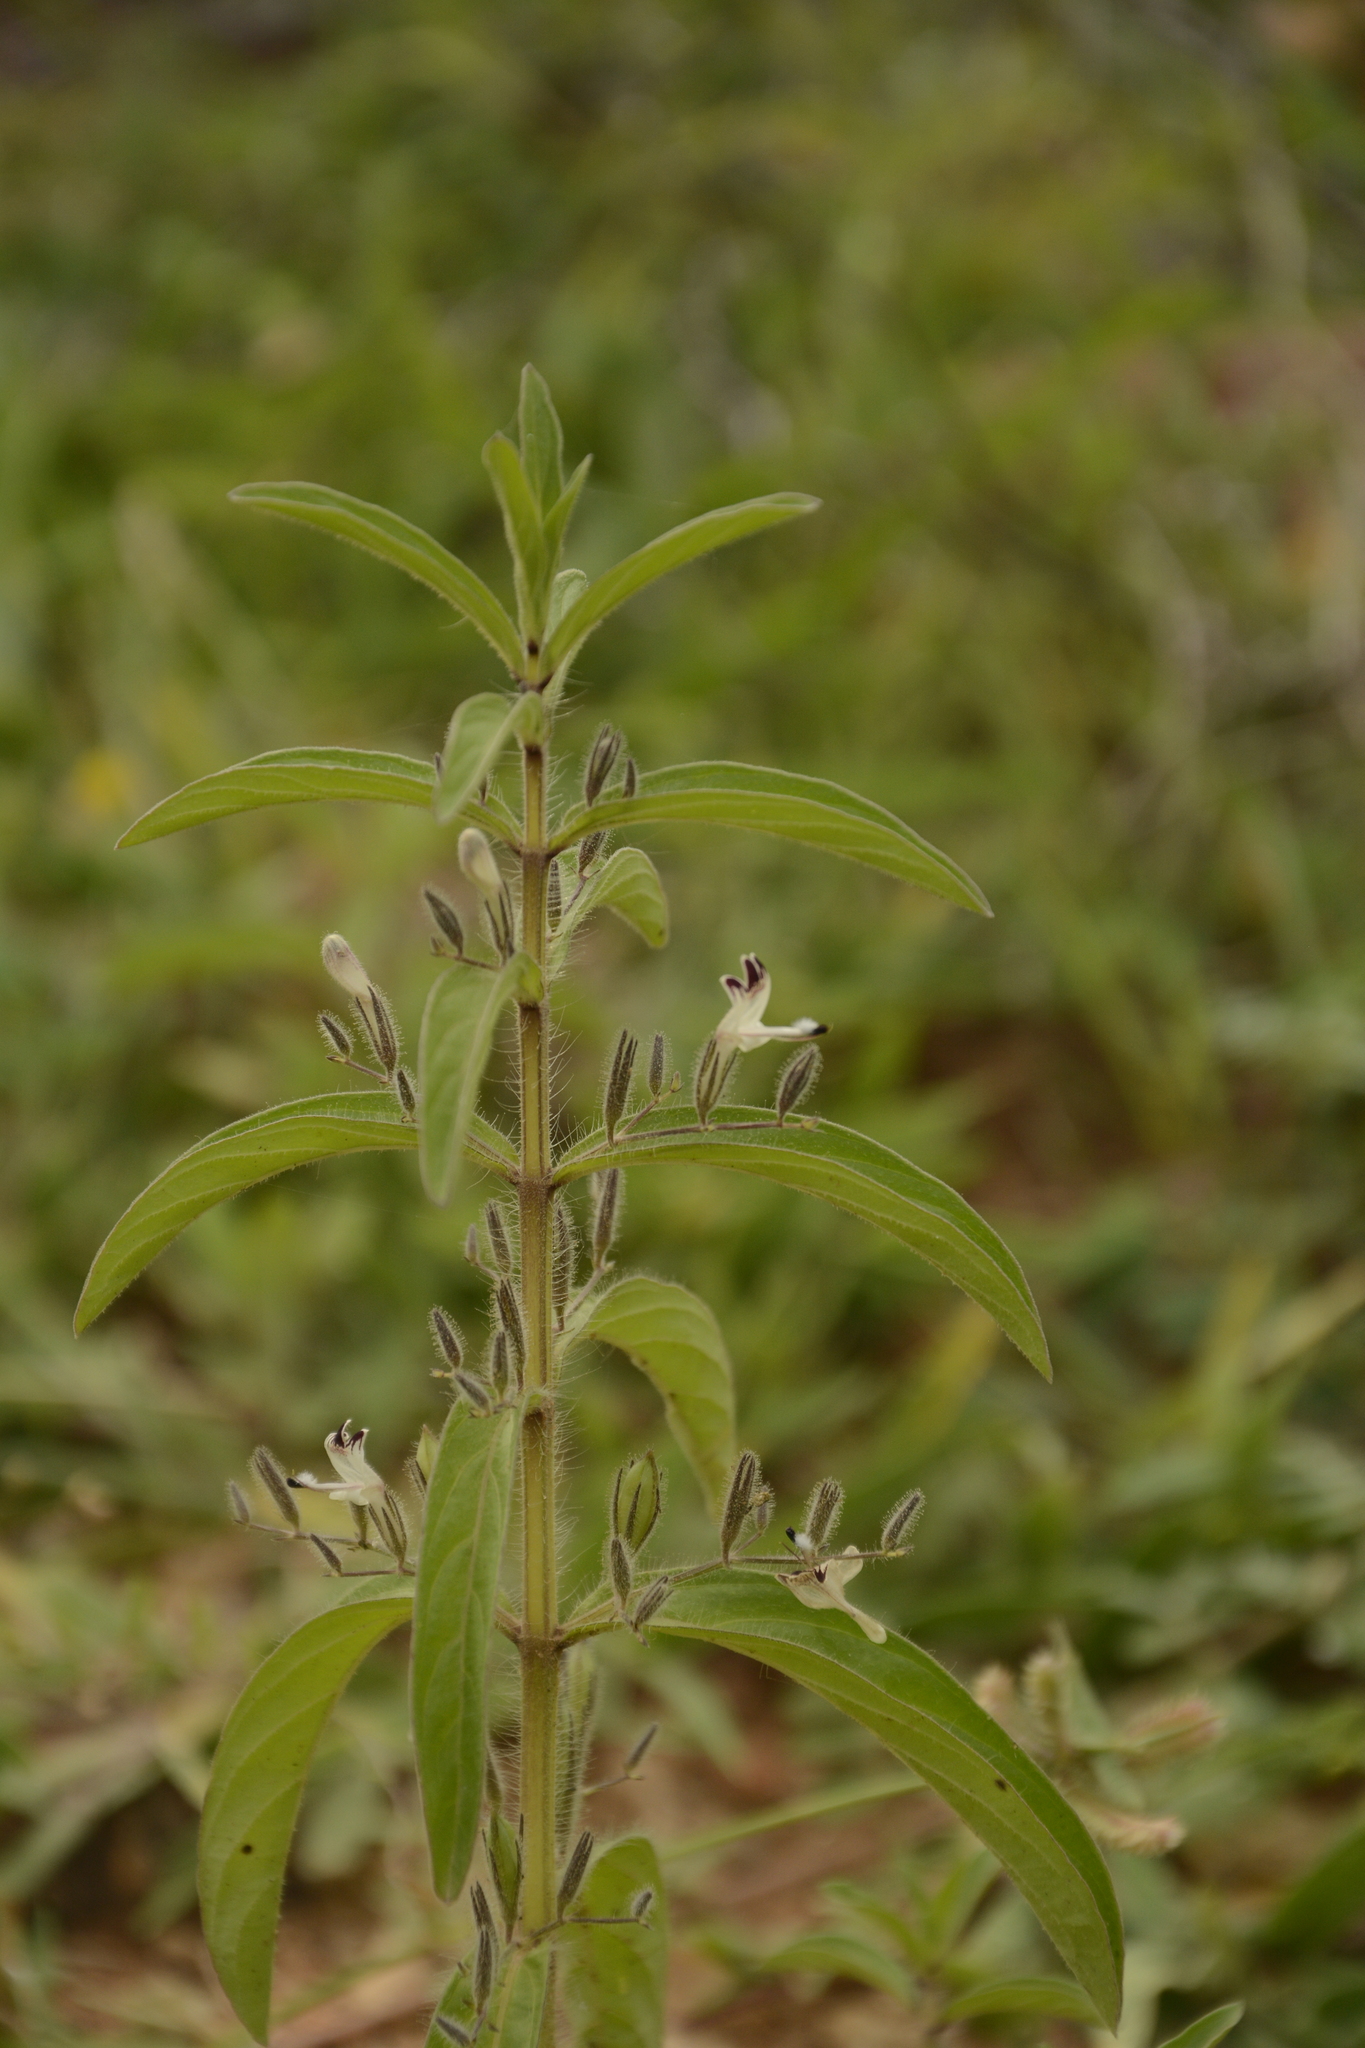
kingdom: Plantae
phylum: Tracheophyta
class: Magnoliopsida
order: Lamiales
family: Acanthaceae
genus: Andrographis
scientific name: Andrographis echioides
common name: False waterwillow
